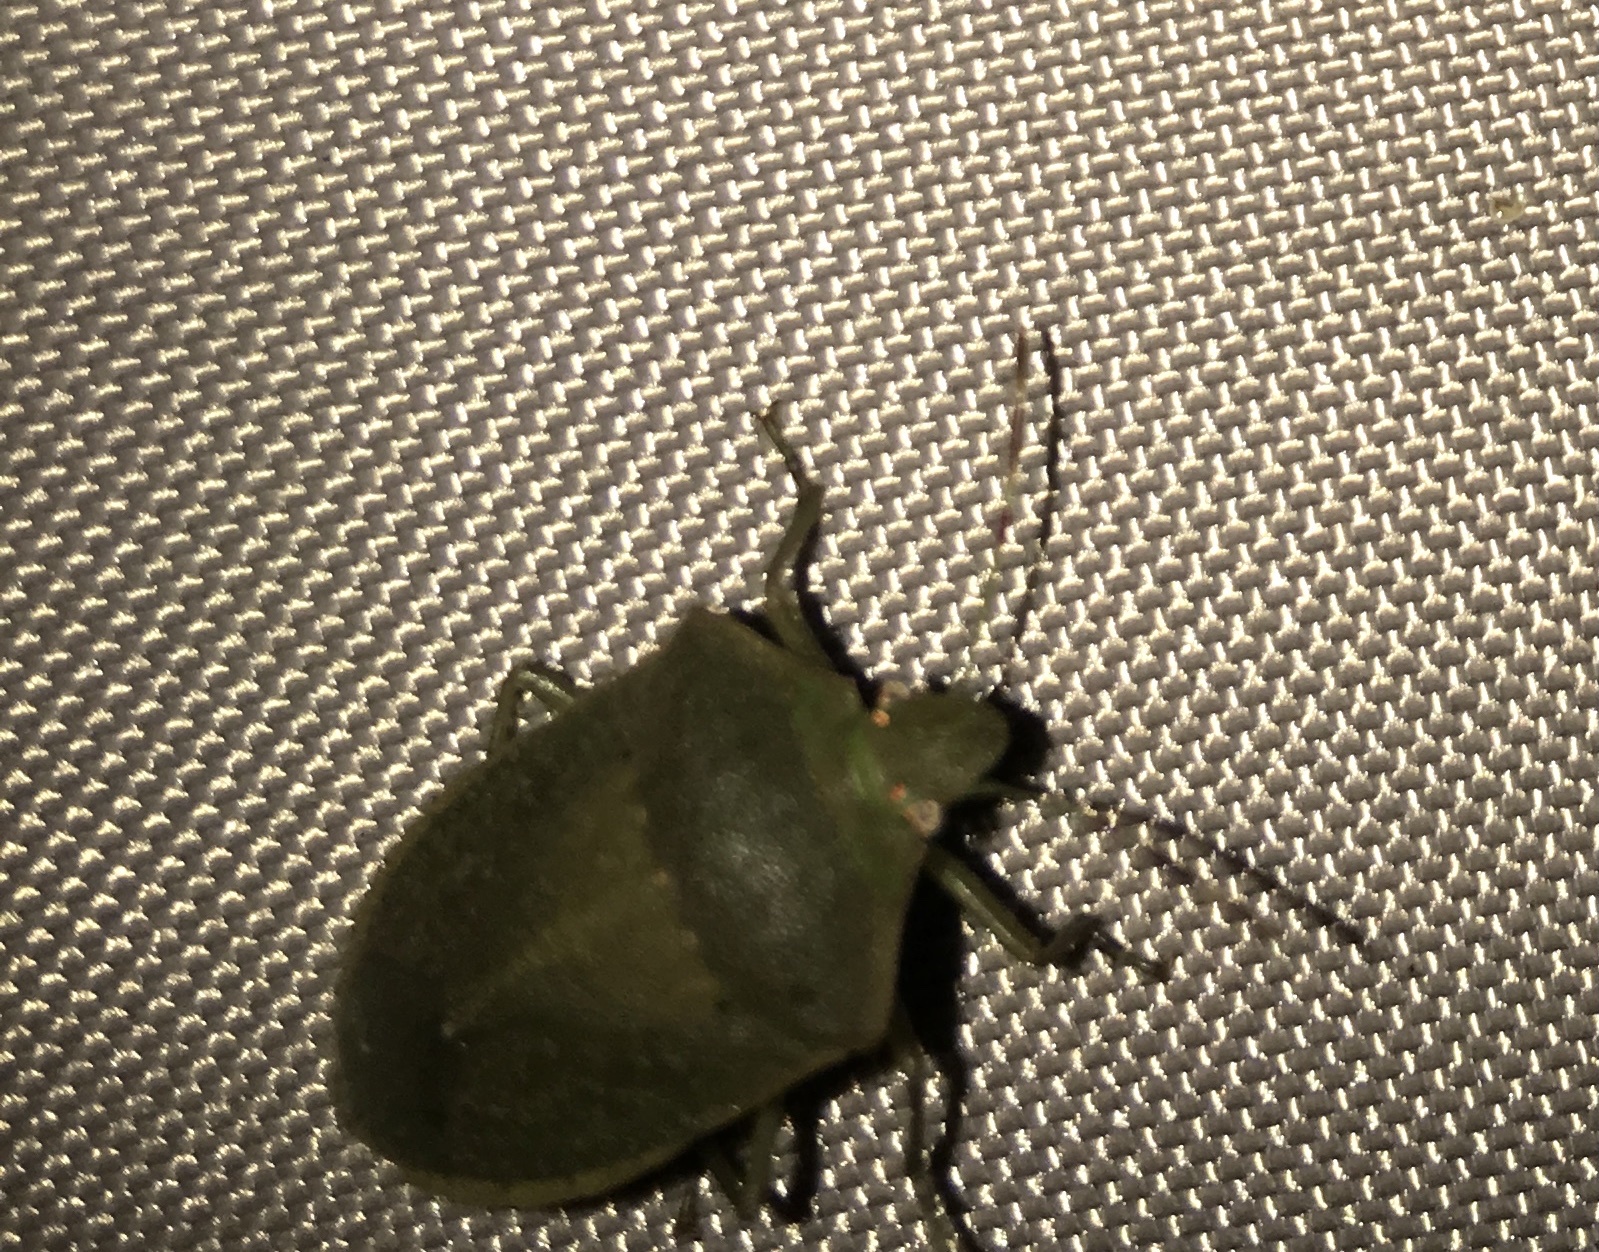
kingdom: Animalia
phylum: Arthropoda
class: Insecta
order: Hemiptera
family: Pentatomidae
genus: Nezara
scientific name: Nezara viridula
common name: Southern green stink bug
